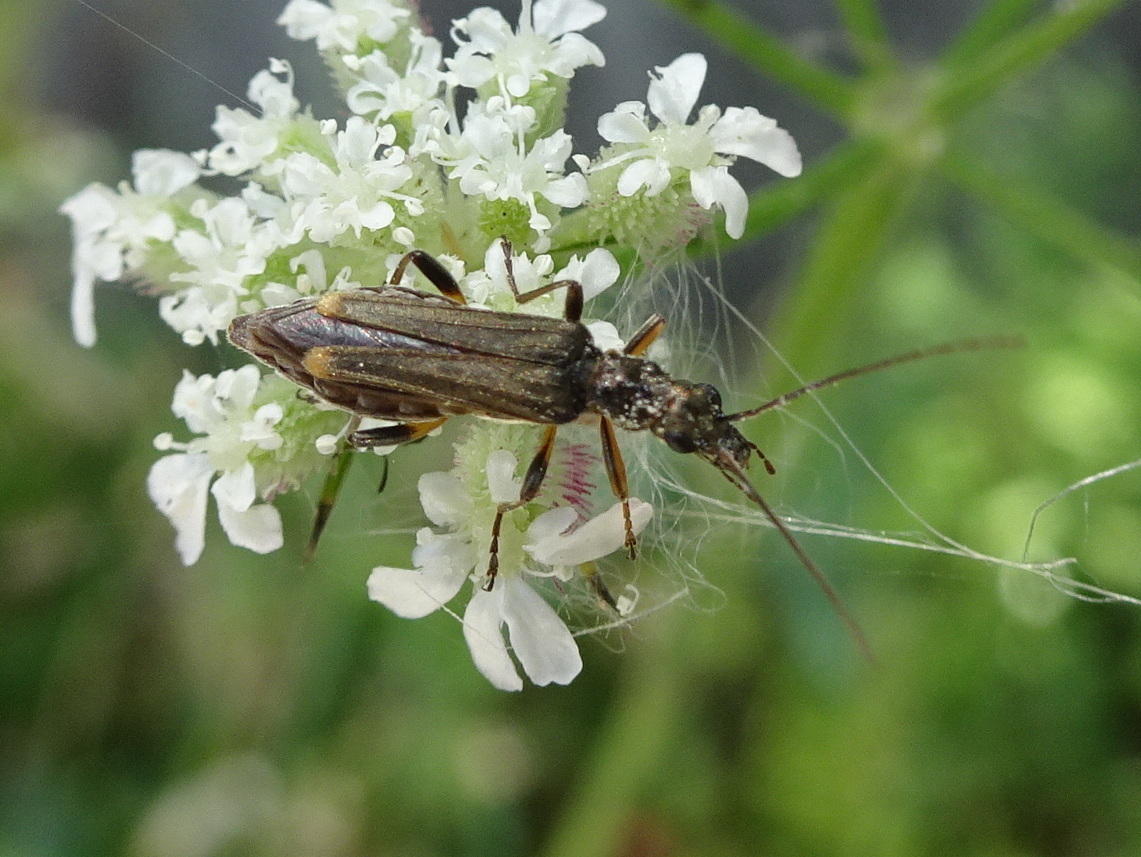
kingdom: Animalia
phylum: Arthropoda
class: Insecta
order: Coleoptera
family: Oedemeridae
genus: Oedemera
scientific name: Oedemera barbara
